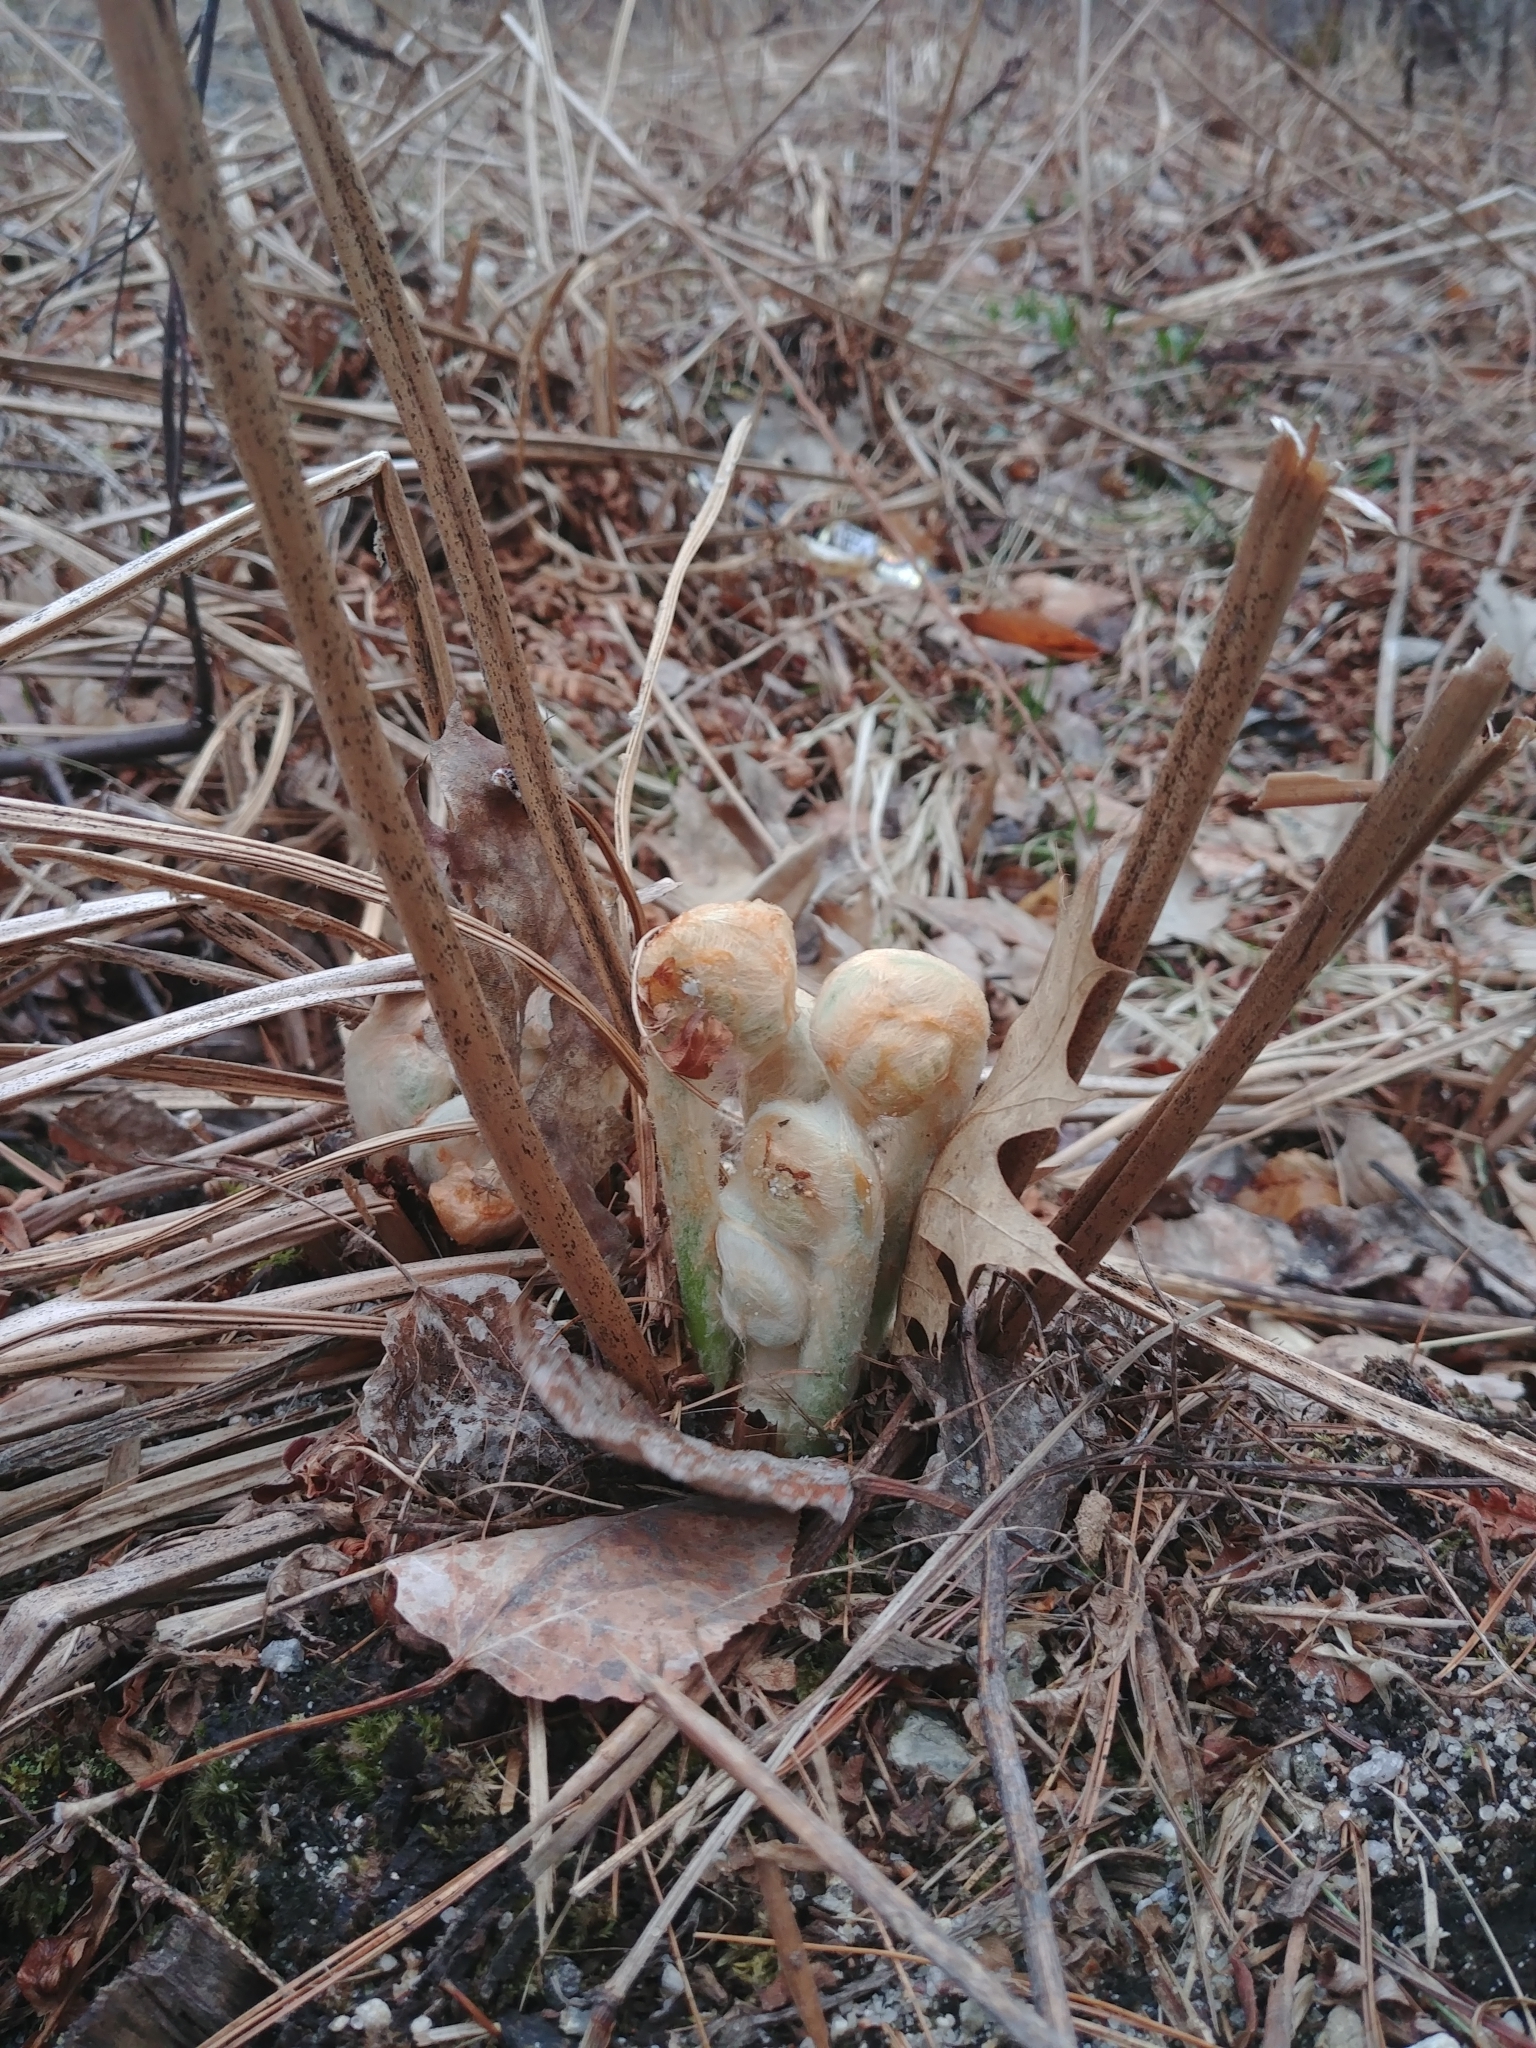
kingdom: Plantae
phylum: Tracheophyta
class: Polypodiopsida
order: Osmundales
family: Osmundaceae
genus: Osmundastrum
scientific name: Osmundastrum cinnamomeum
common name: Cinnamon fern
